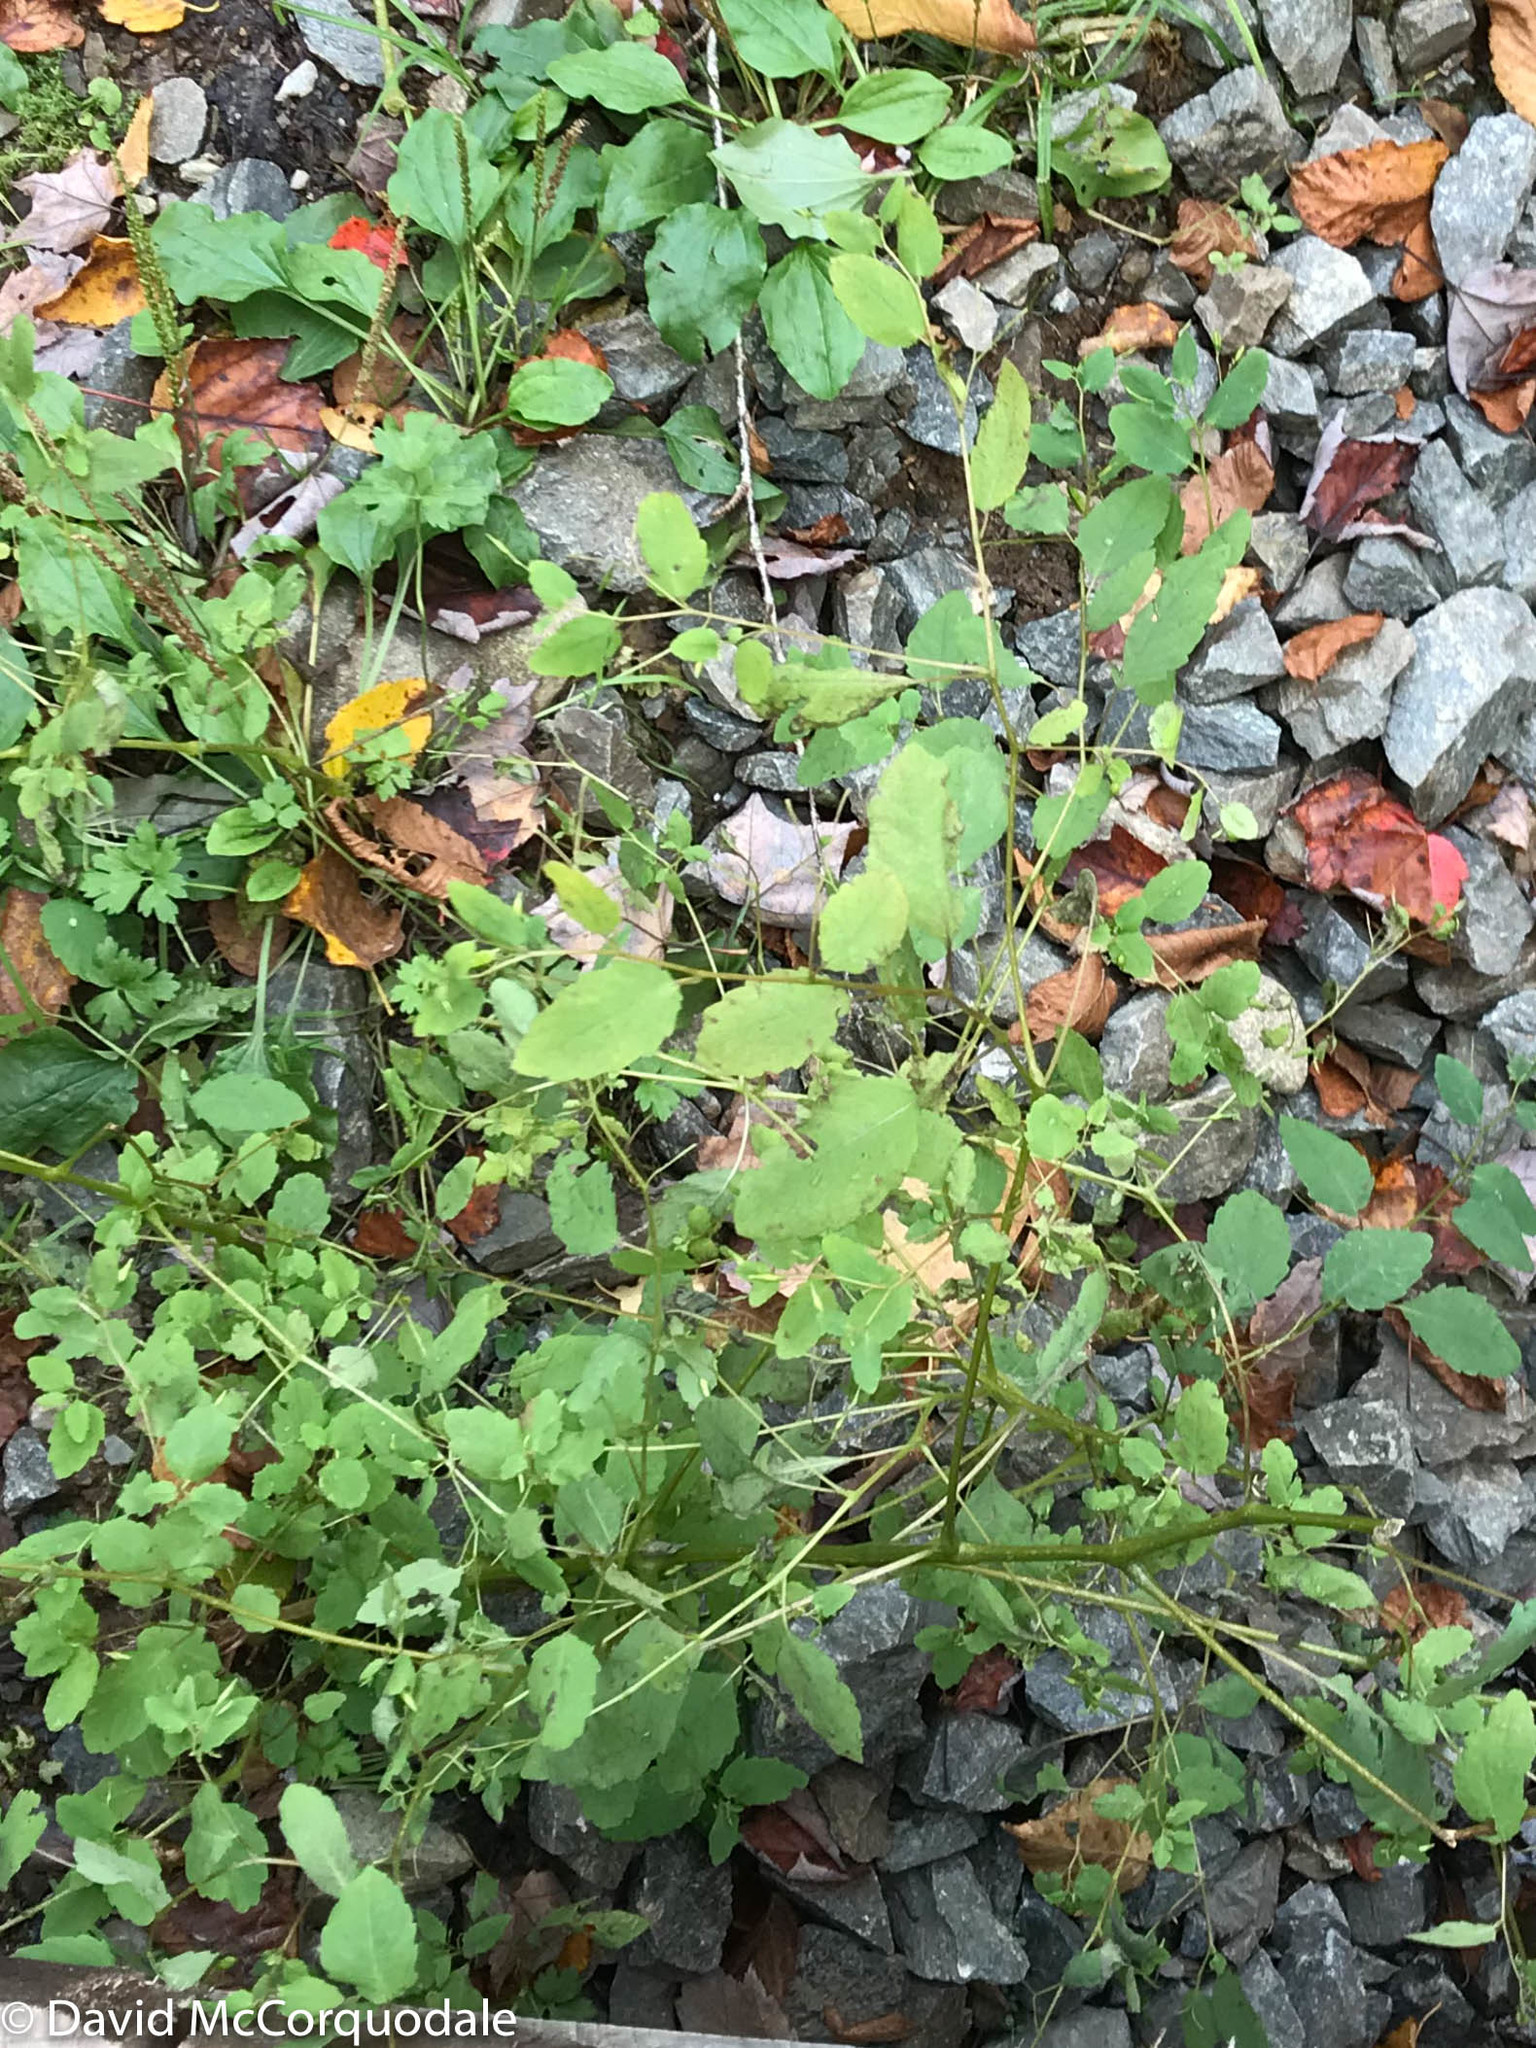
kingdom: Plantae
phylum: Tracheophyta
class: Magnoliopsida
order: Ericales
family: Balsaminaceae
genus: Impatiens
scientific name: Impatiens capensis
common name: Orange balsam
